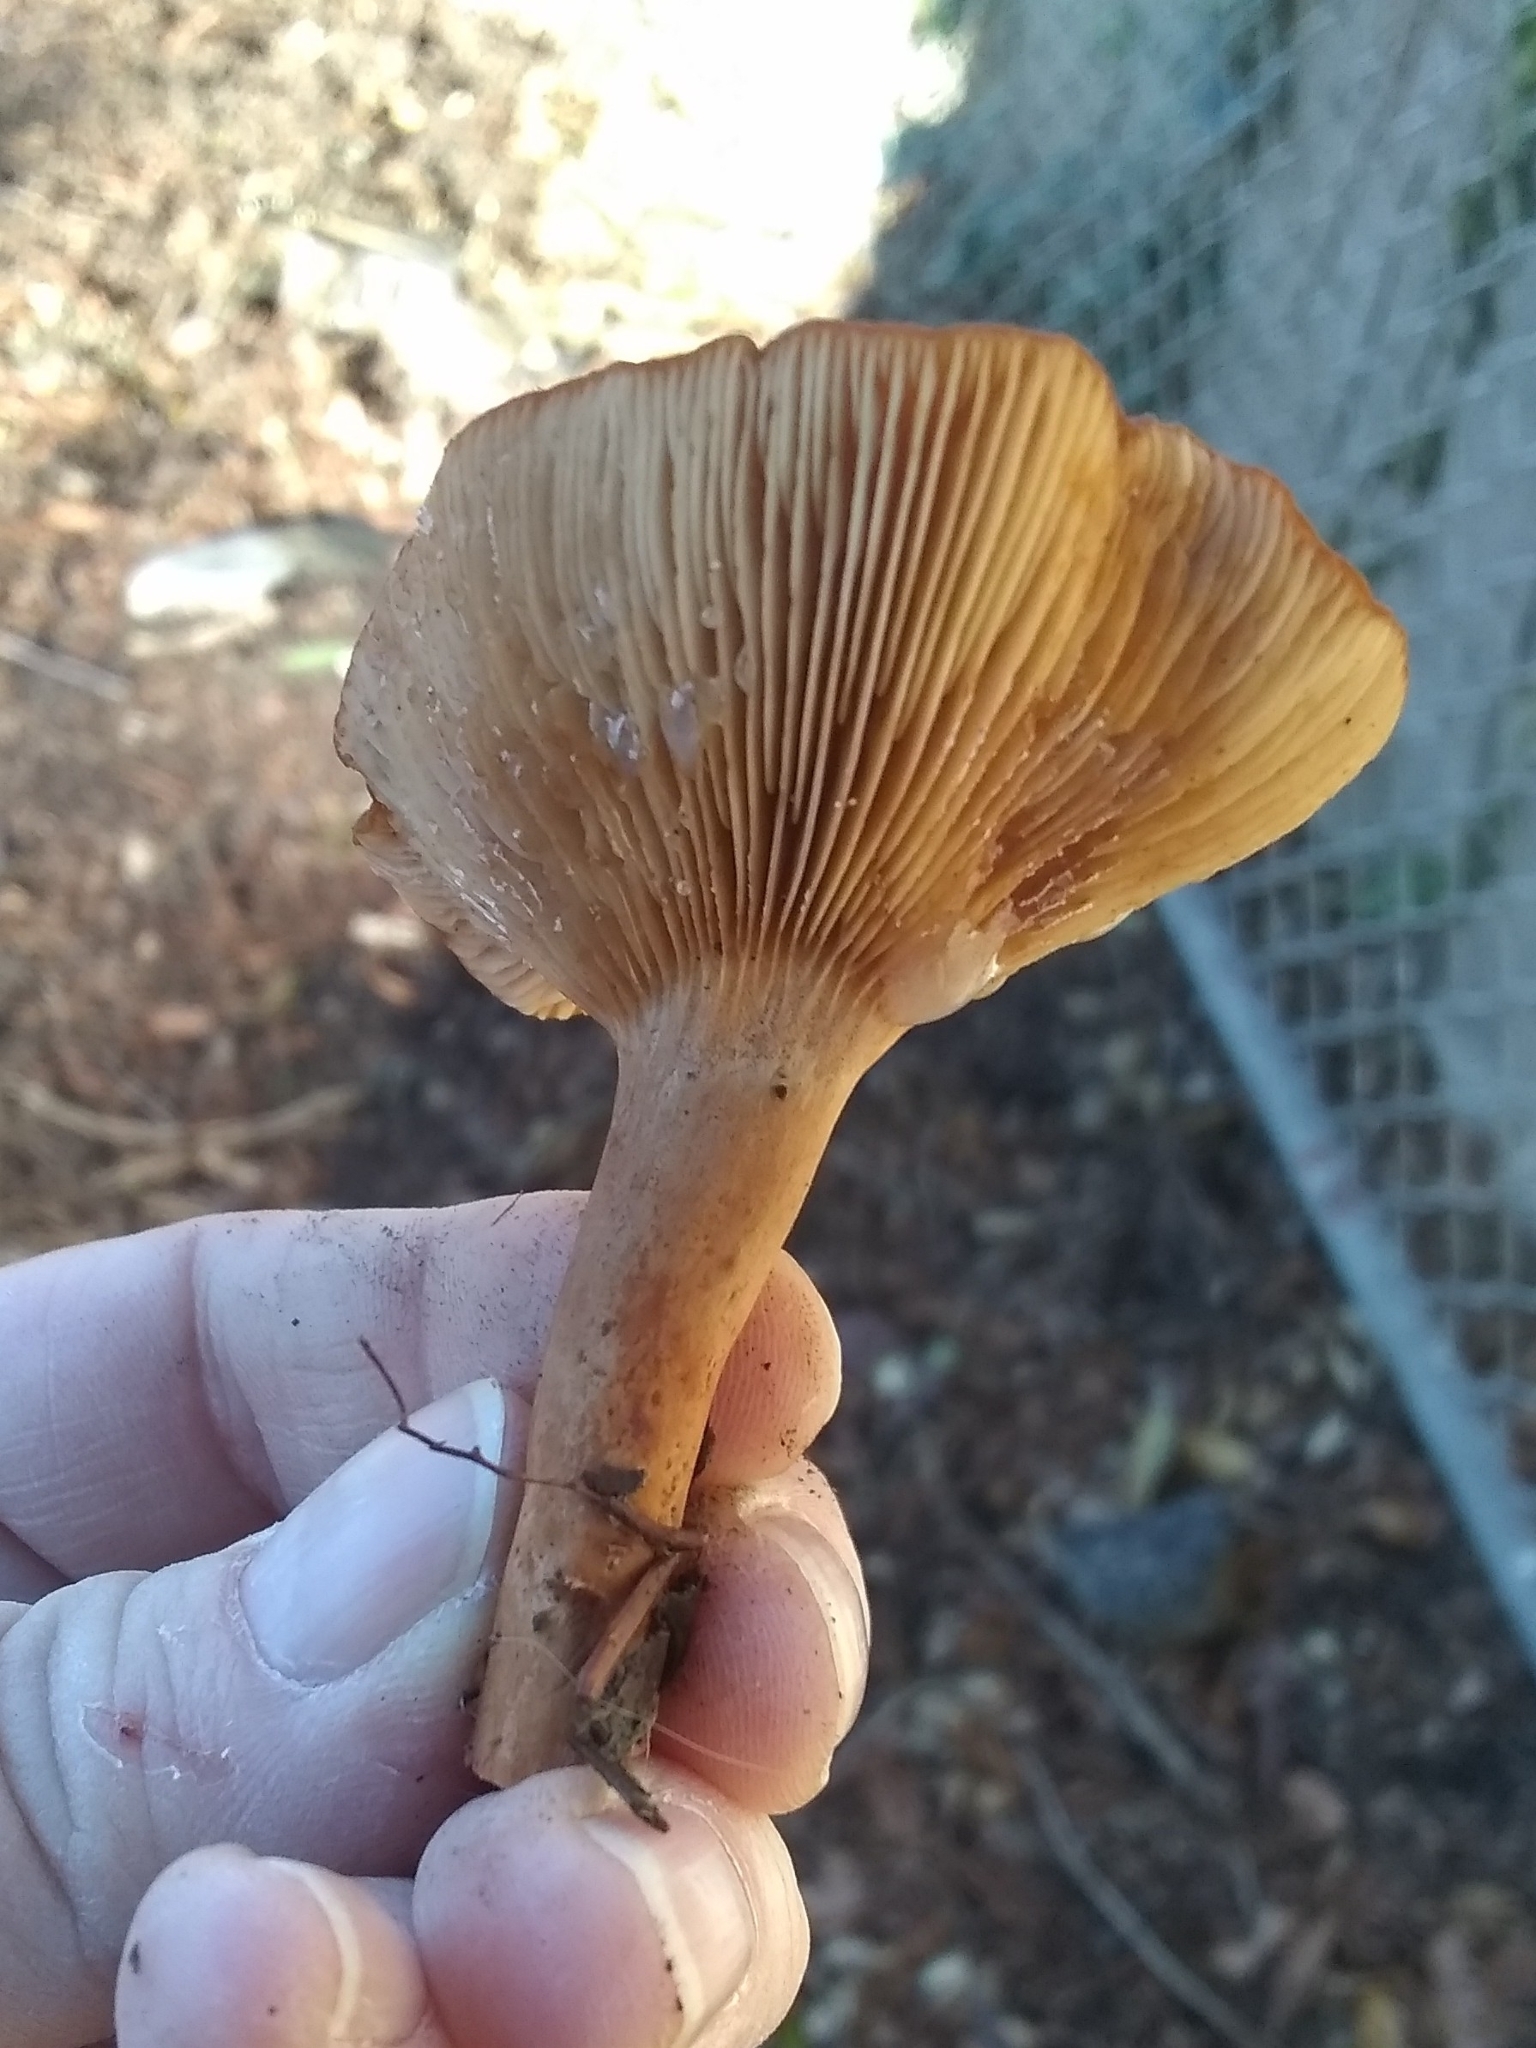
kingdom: Fungi
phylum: Basidiomycota
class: Agaricomycetes
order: Russulales
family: Russulaceae
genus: Lactarius
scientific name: Lactarius rubidus
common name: Candy cap
